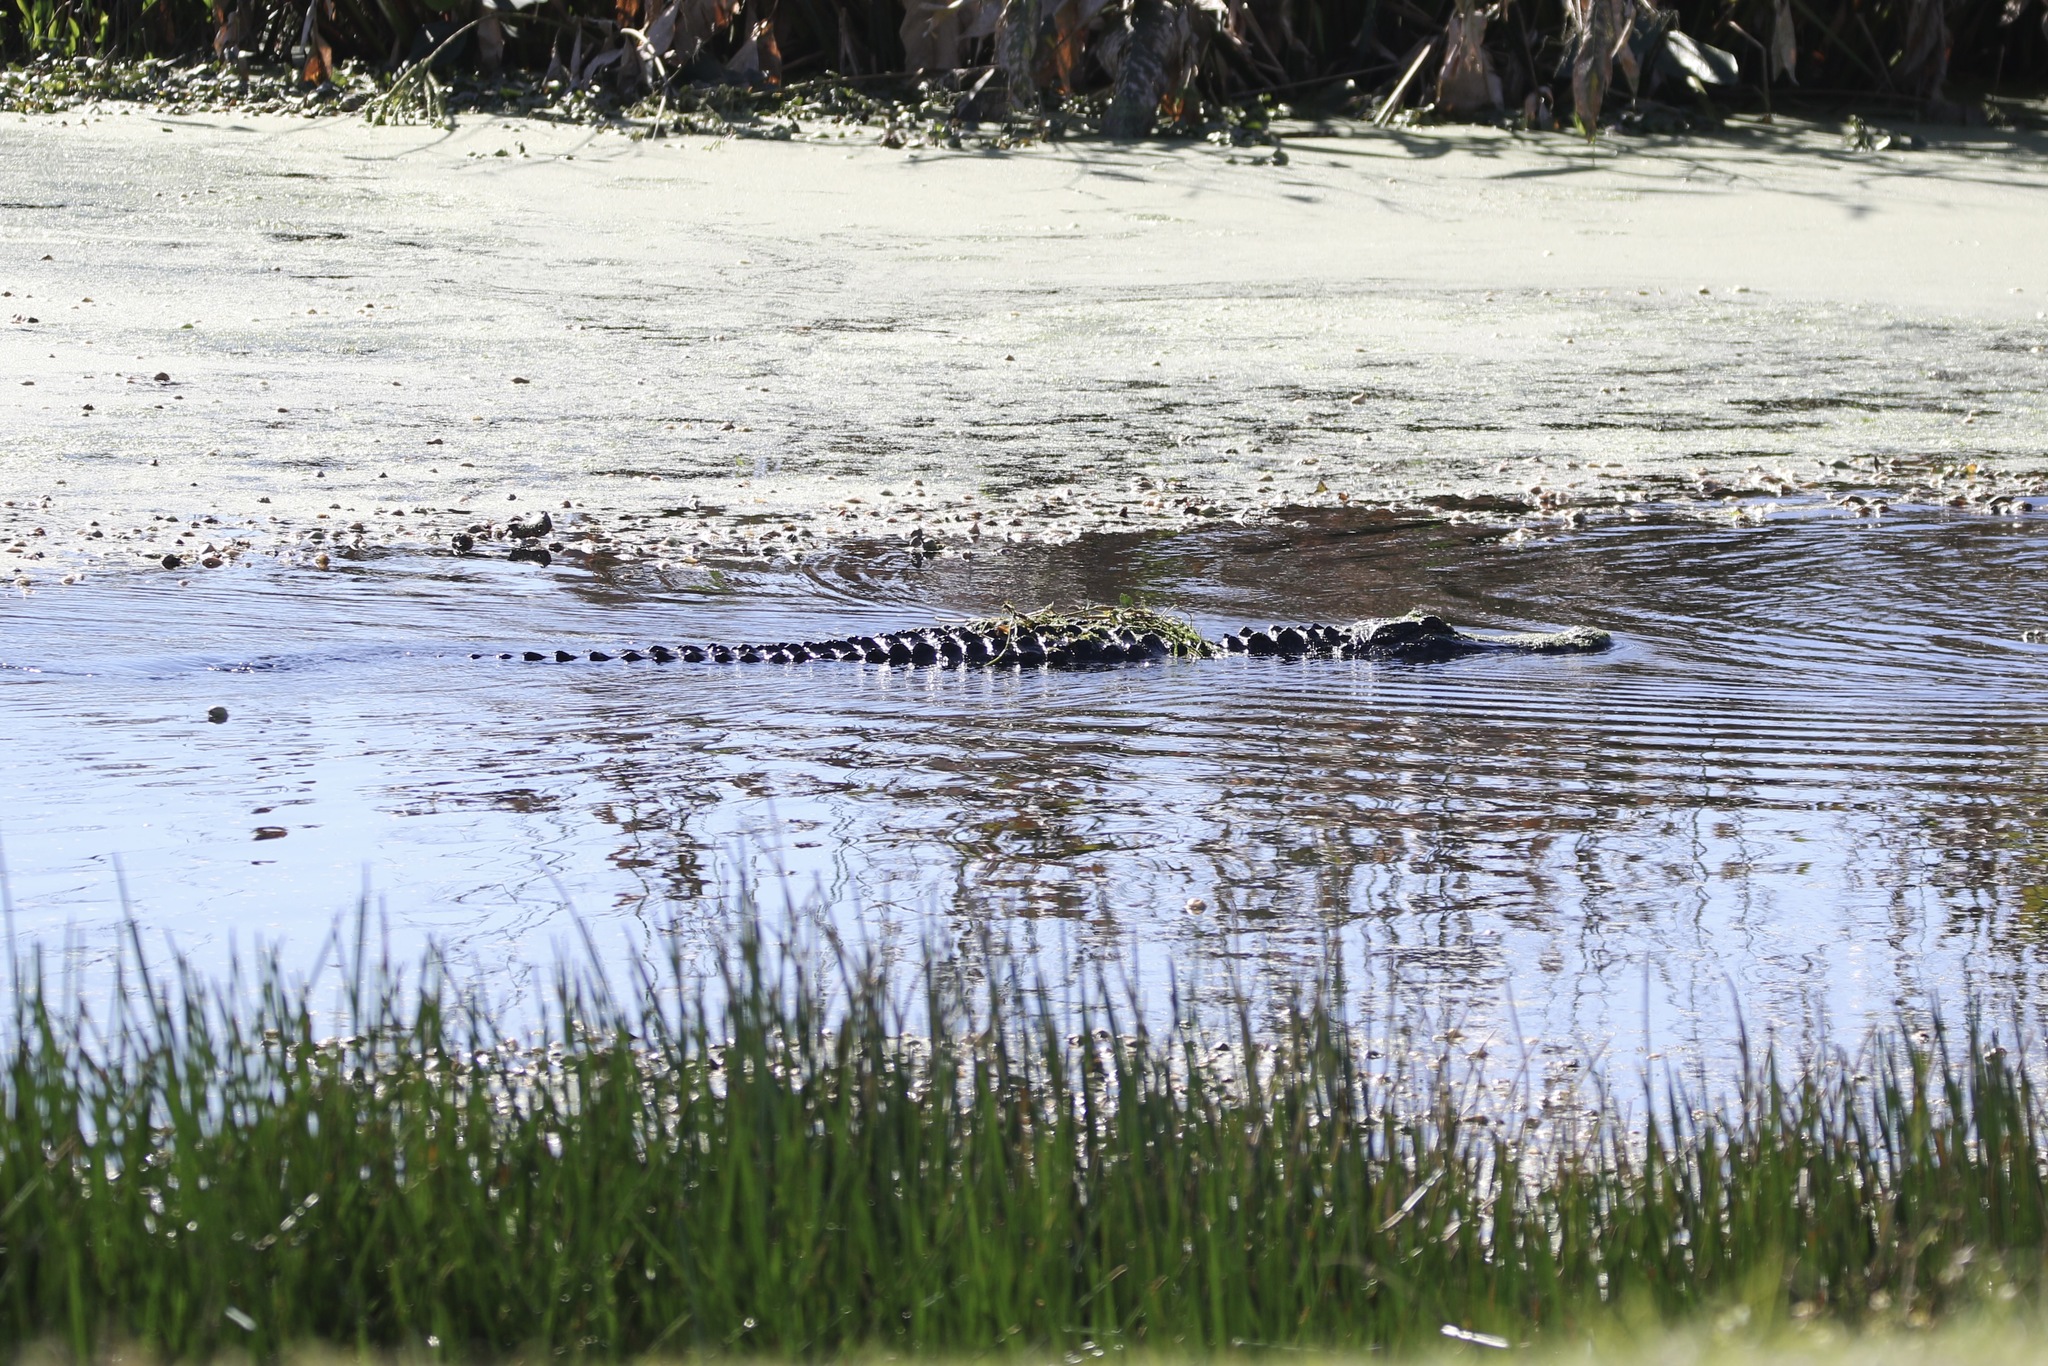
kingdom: Animalia
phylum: Chordata
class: Crocodylia
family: Alligatoridae
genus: Alligator
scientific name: Alligator mississippiensis
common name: American alligator
